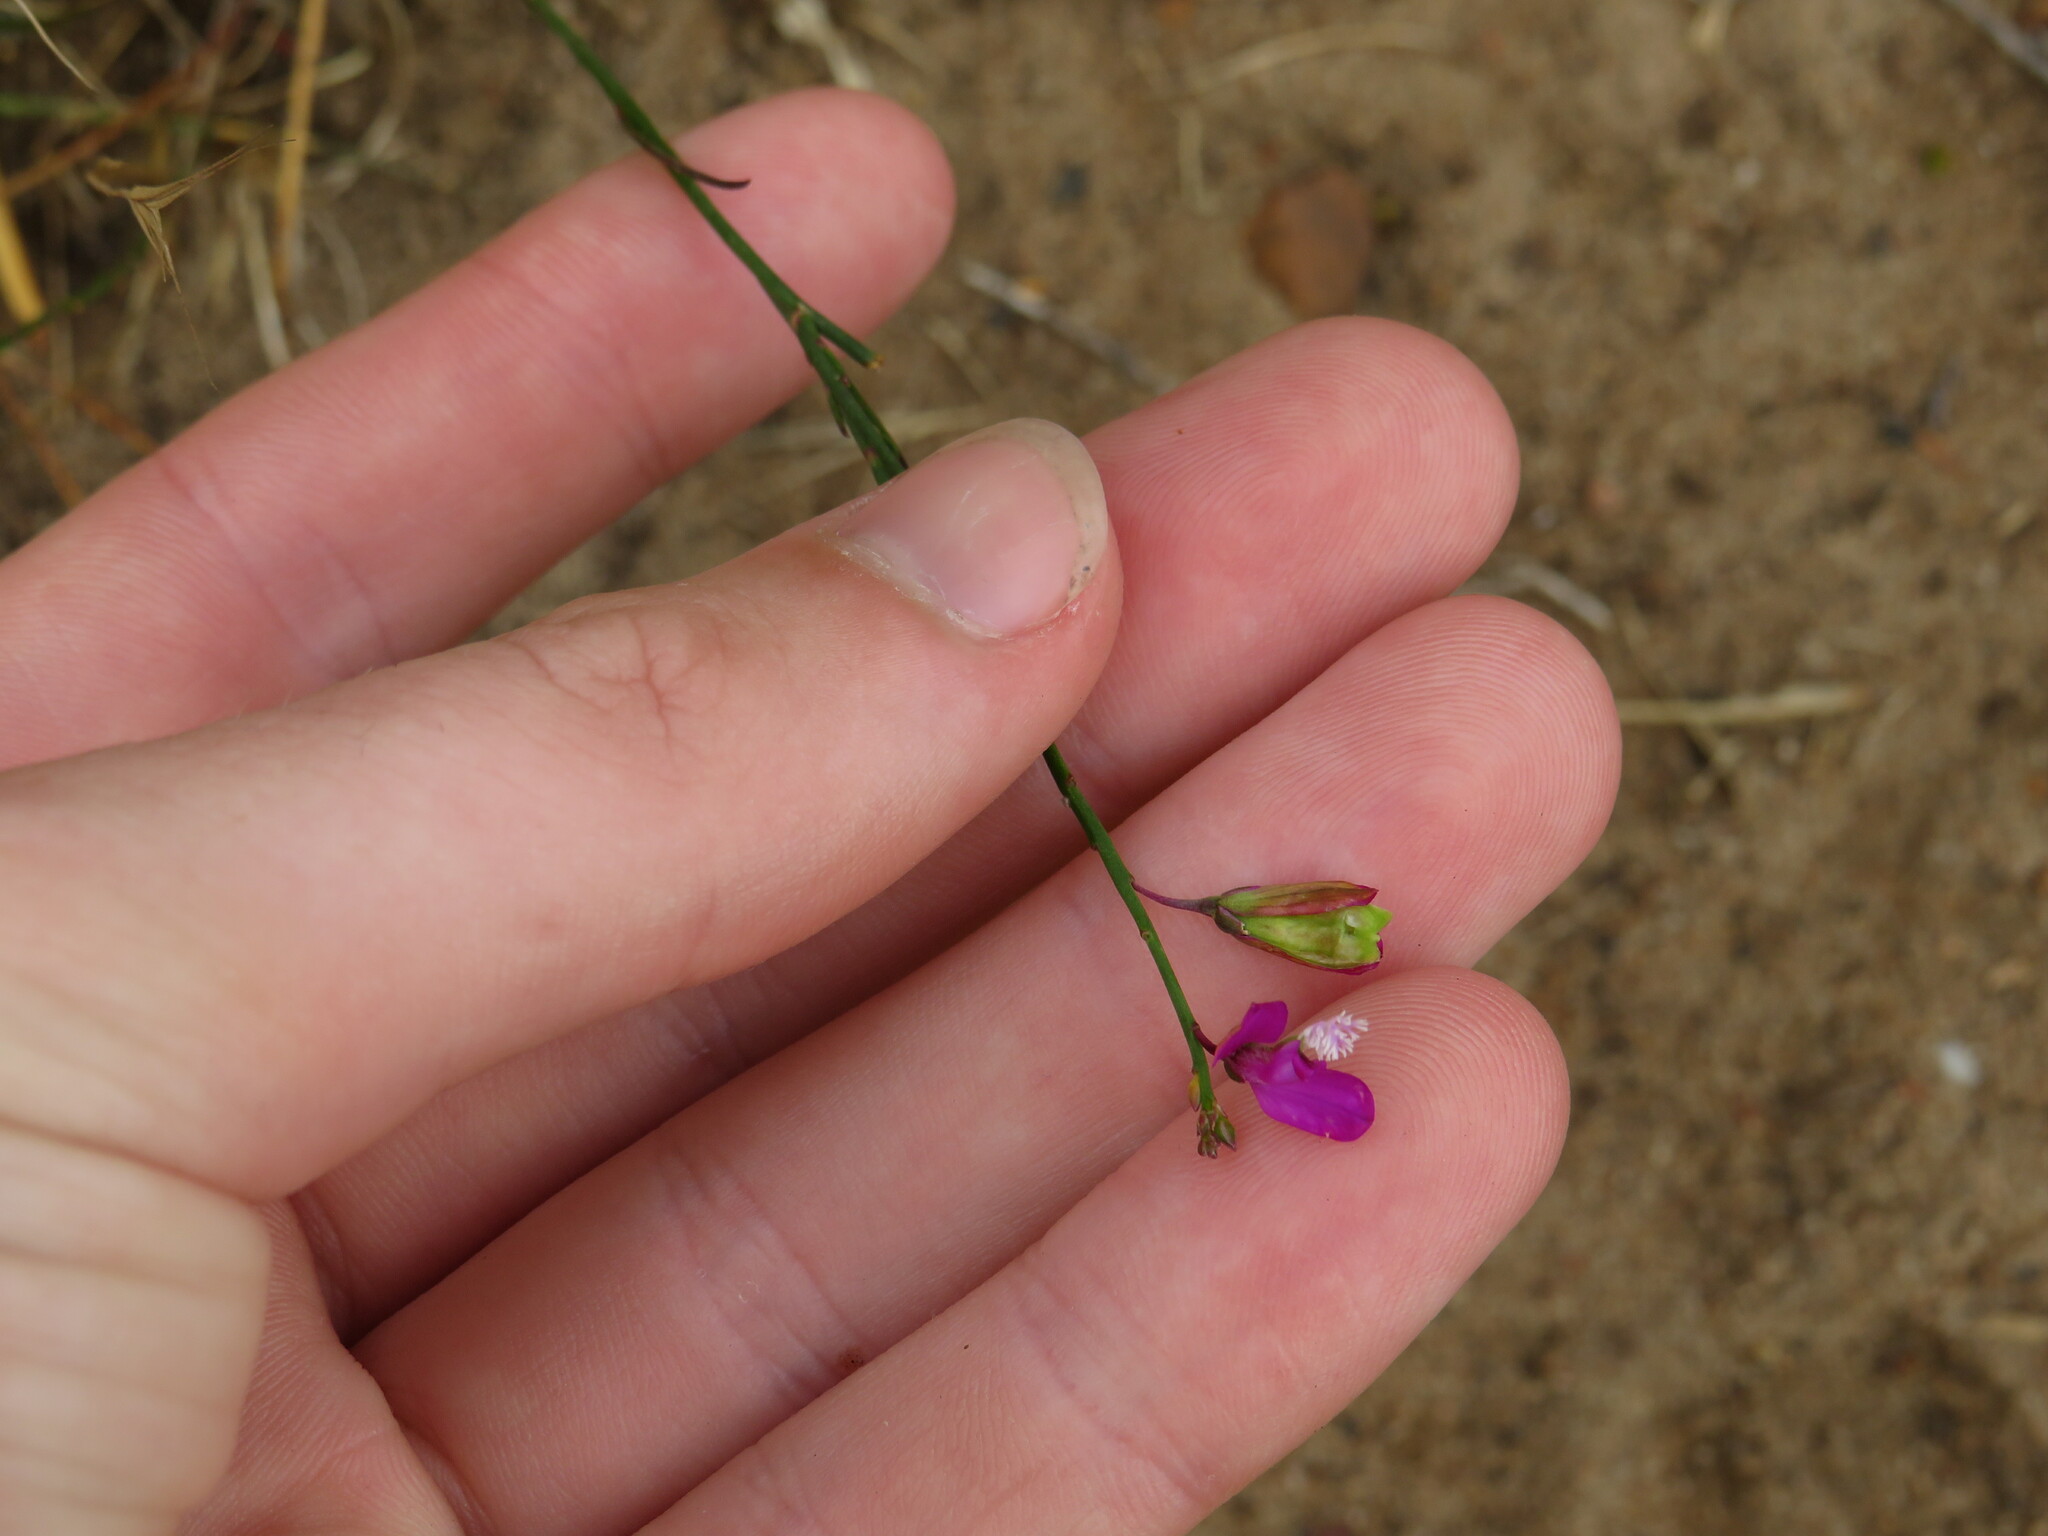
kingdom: Plantae
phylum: Tracheophyta
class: Magnoliopsida
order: Fabales
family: Polygalaceae
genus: Polygala
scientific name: Polygala garcini
